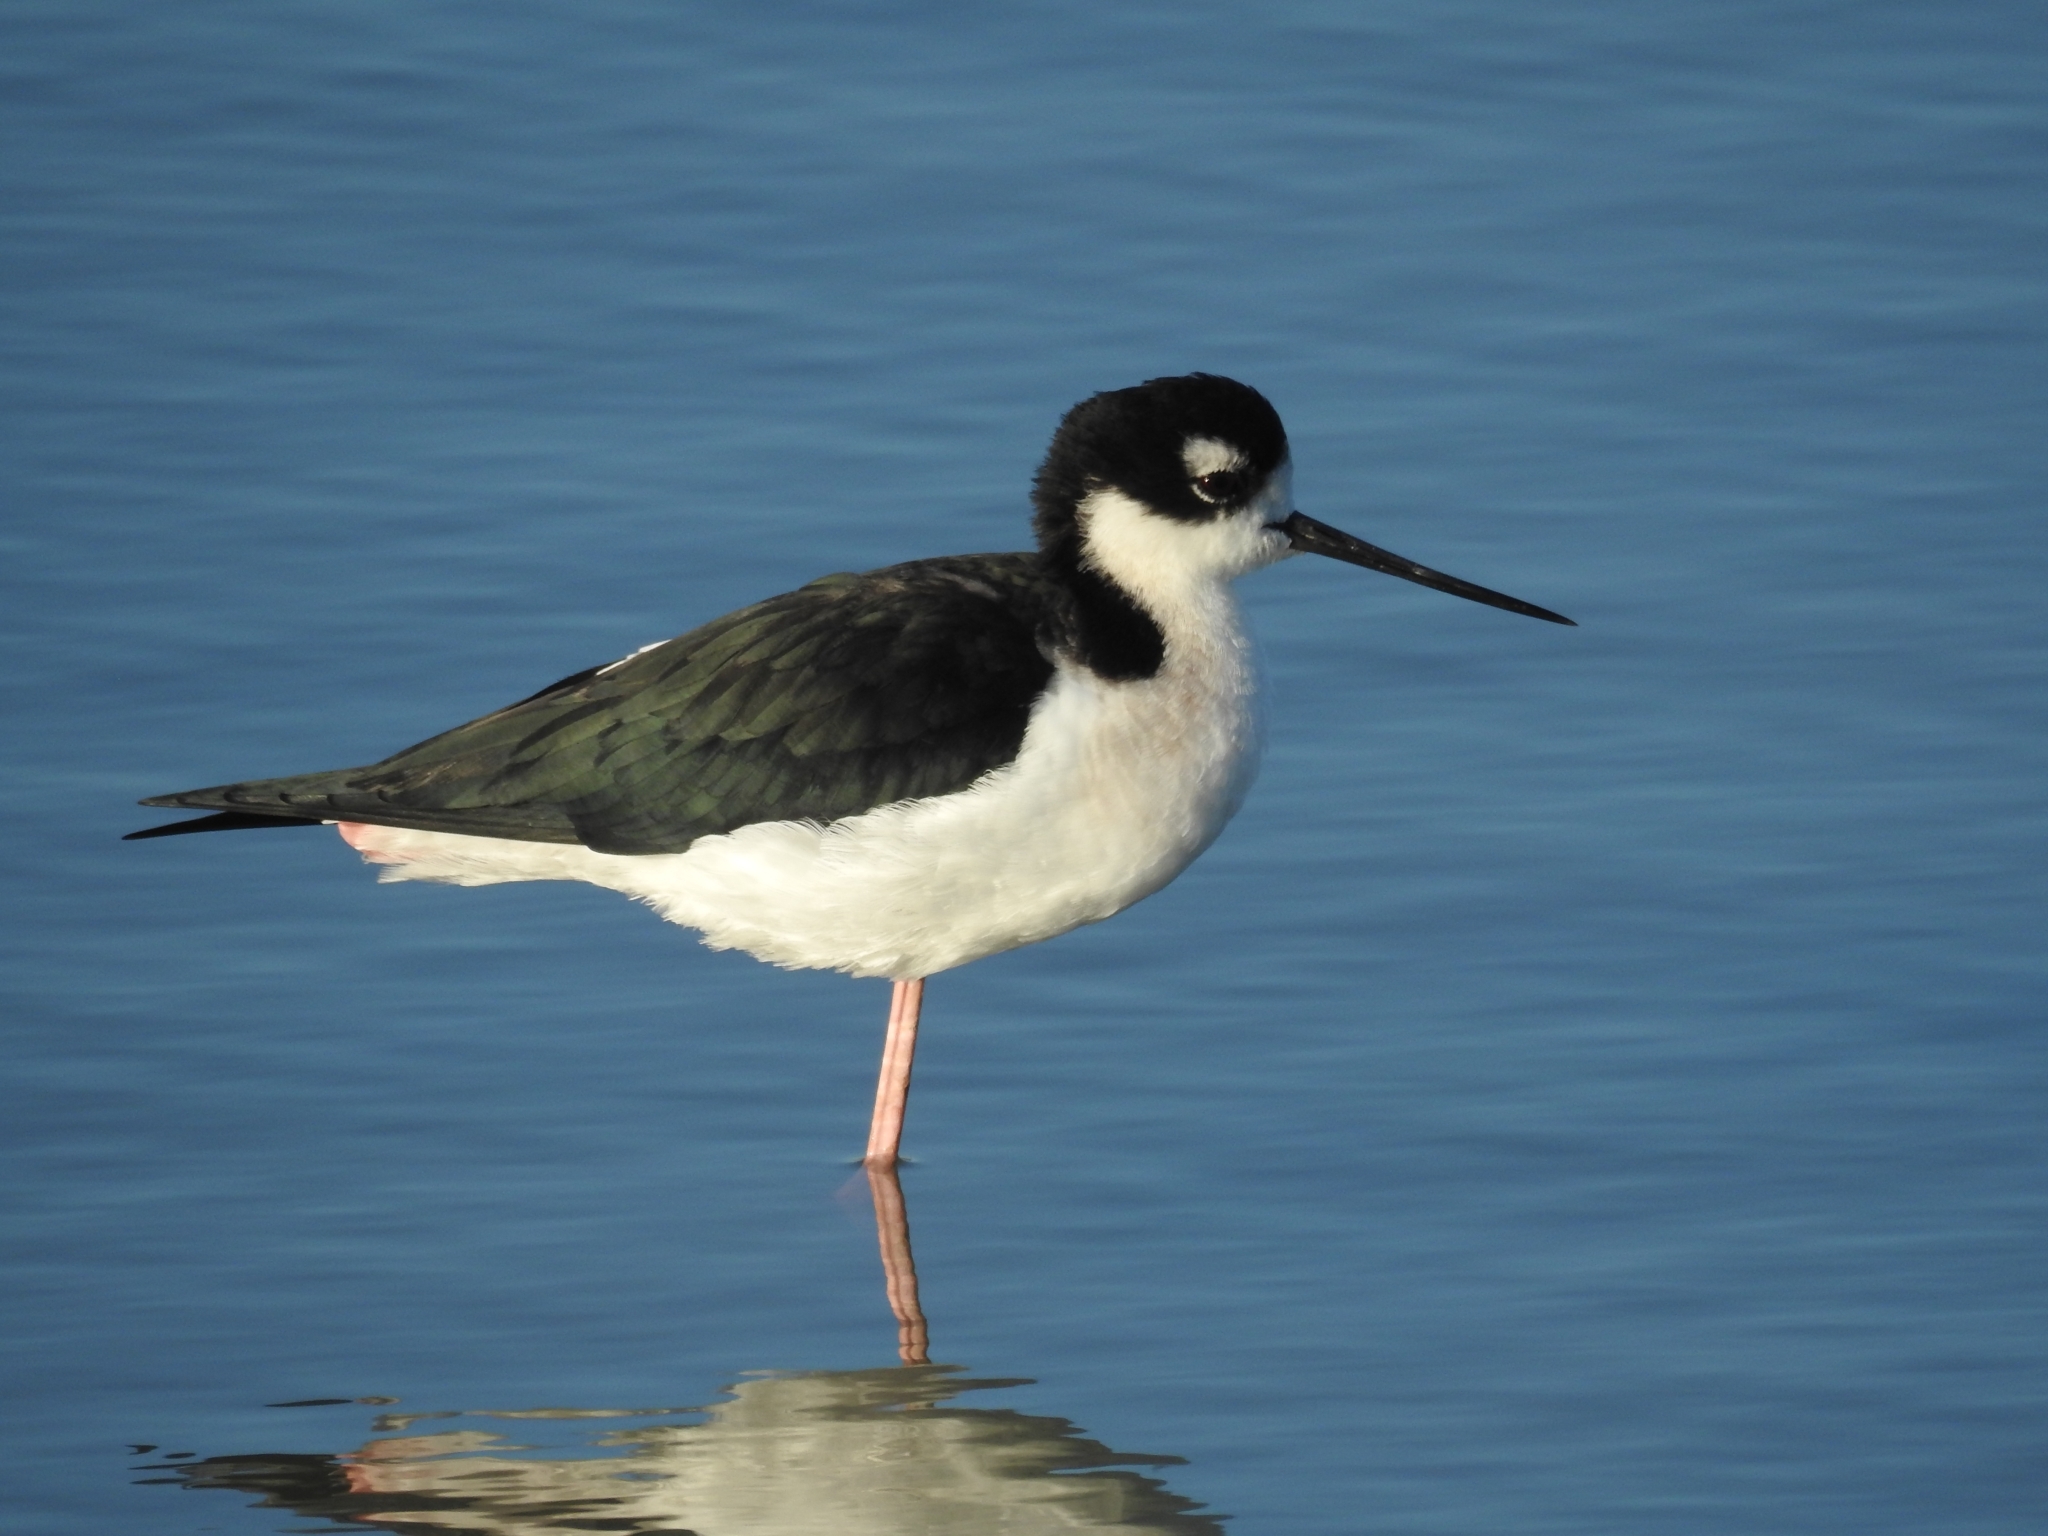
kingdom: Animalia
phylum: Chordata
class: Aves
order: Charadriiformes
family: Recurvirostridae
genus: Himantopus
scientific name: Himantopus mexicanus
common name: Black-necked stilt
